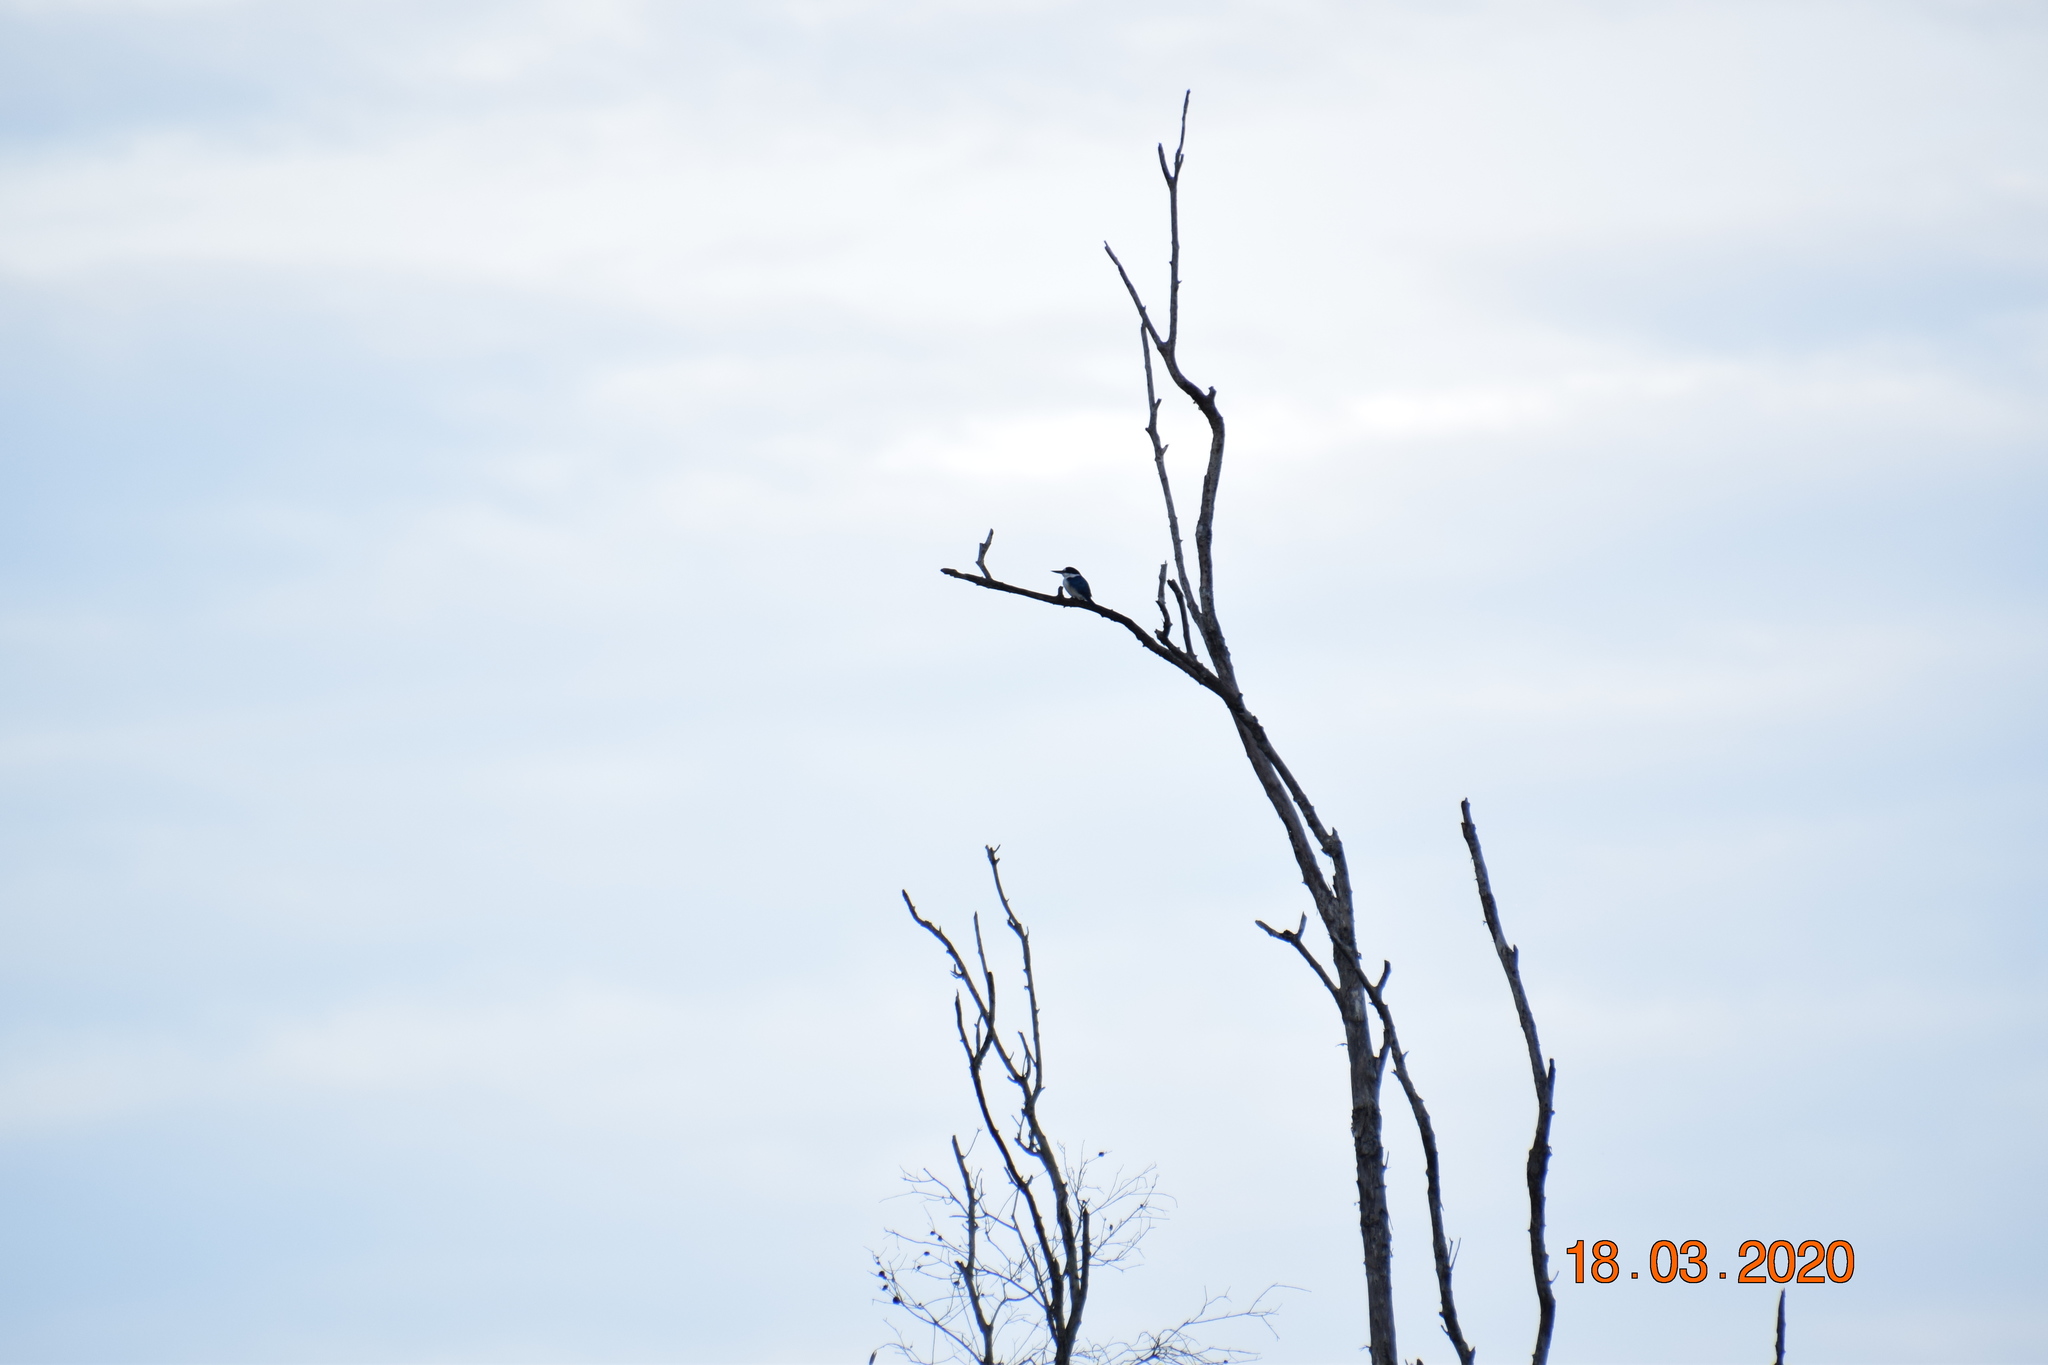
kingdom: Animalia
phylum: Chordata
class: Aves
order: Coraciiformes
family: Alcedinidae
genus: Todiramphus
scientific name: Todiramphus macleayii
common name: Forest kingfisher
